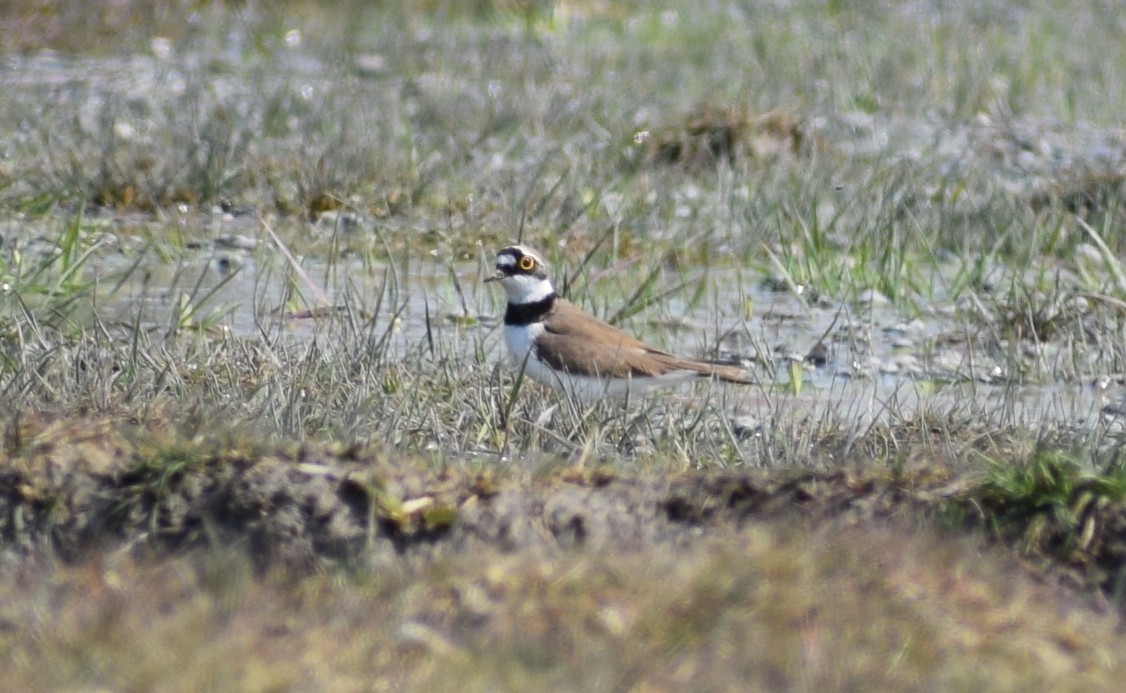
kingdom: Animalia
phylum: Chordata
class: Aves
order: Charadriiformes
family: Charadriidae
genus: Charadrius
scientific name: Charadrius dubius
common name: Little ringed plover
